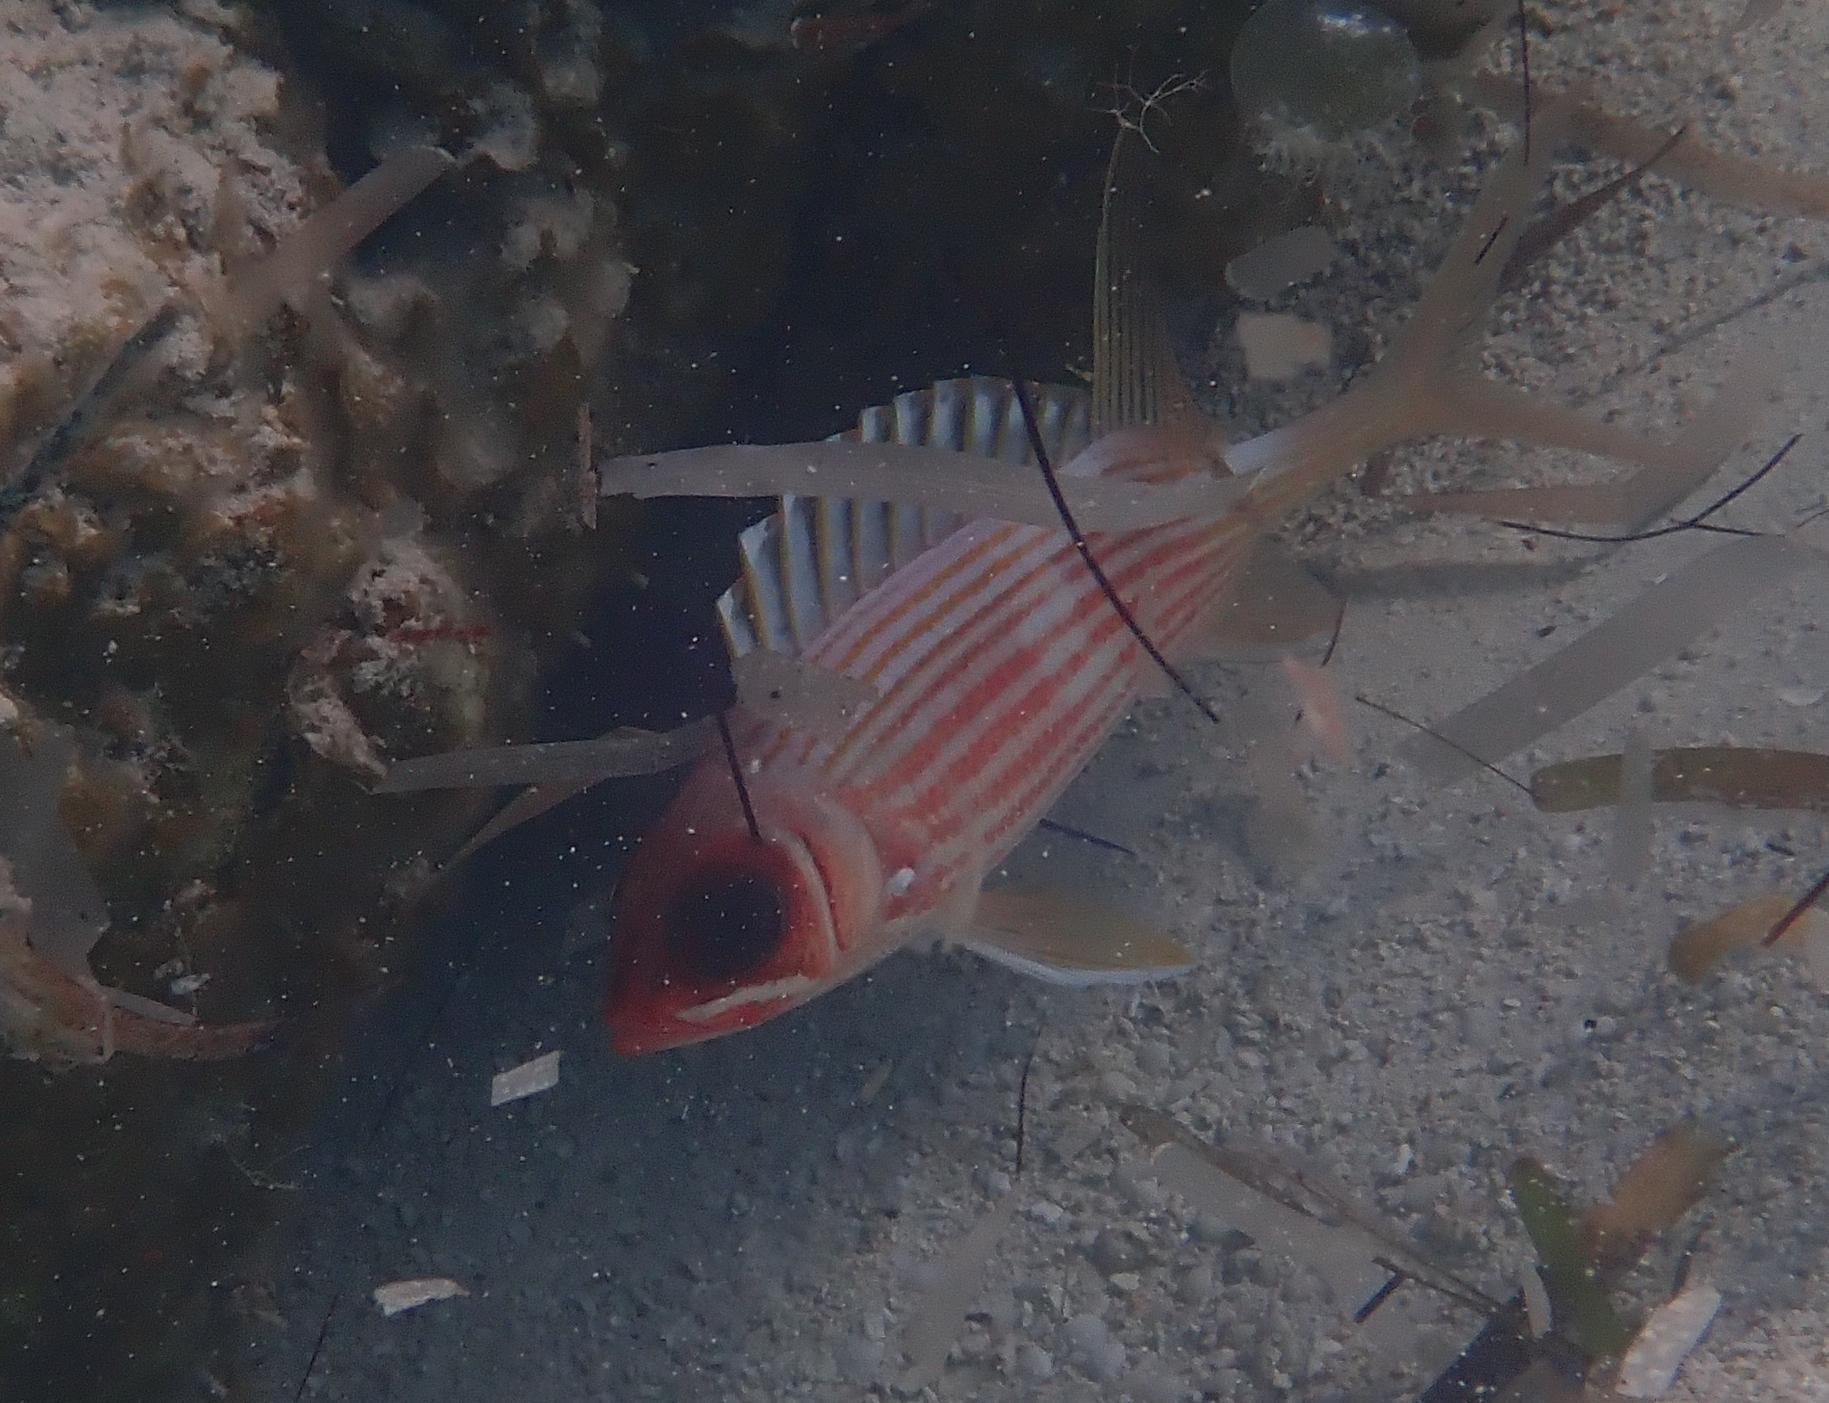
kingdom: Animalia
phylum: Chordata
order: Beryciformes
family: Holocentridae
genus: Holocentrus
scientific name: Holocentrus rufus
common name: Longspine squirrelfish
